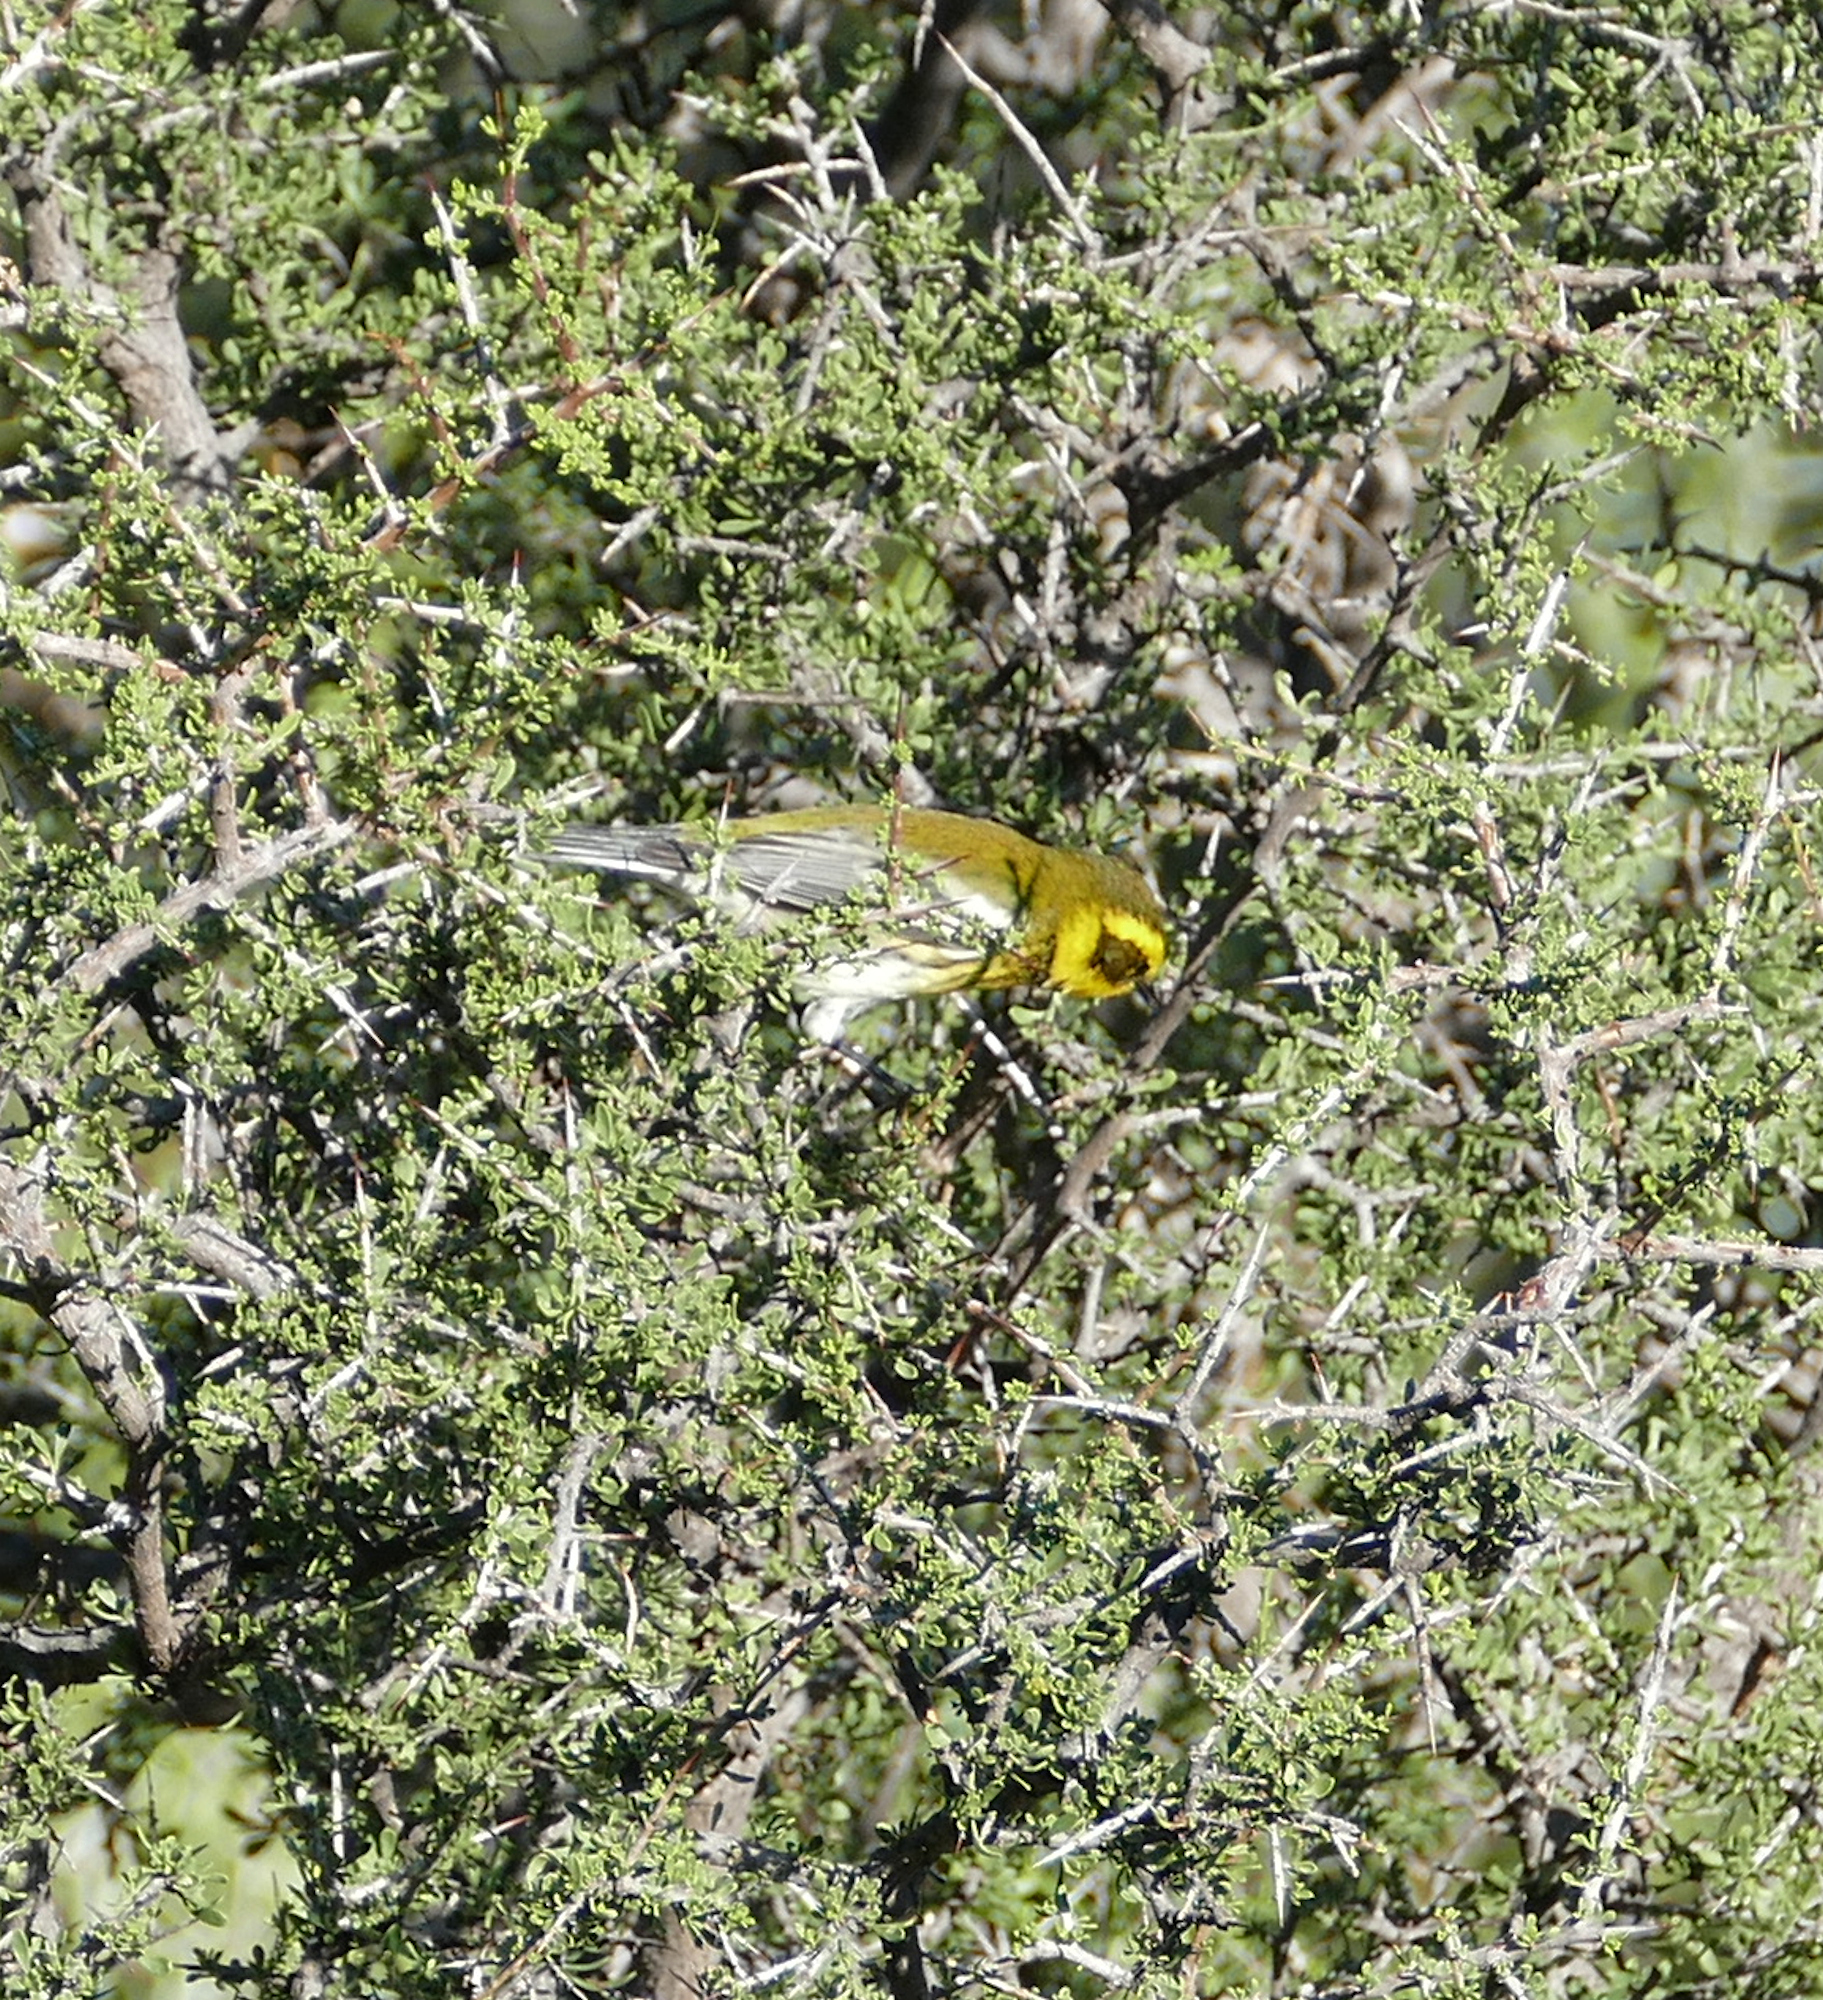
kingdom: Animalia
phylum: Chordata
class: Aves
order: Passeriformes
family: Parulidae
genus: Setophaga
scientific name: Setophaga townsendi
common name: Townsend's warbler
